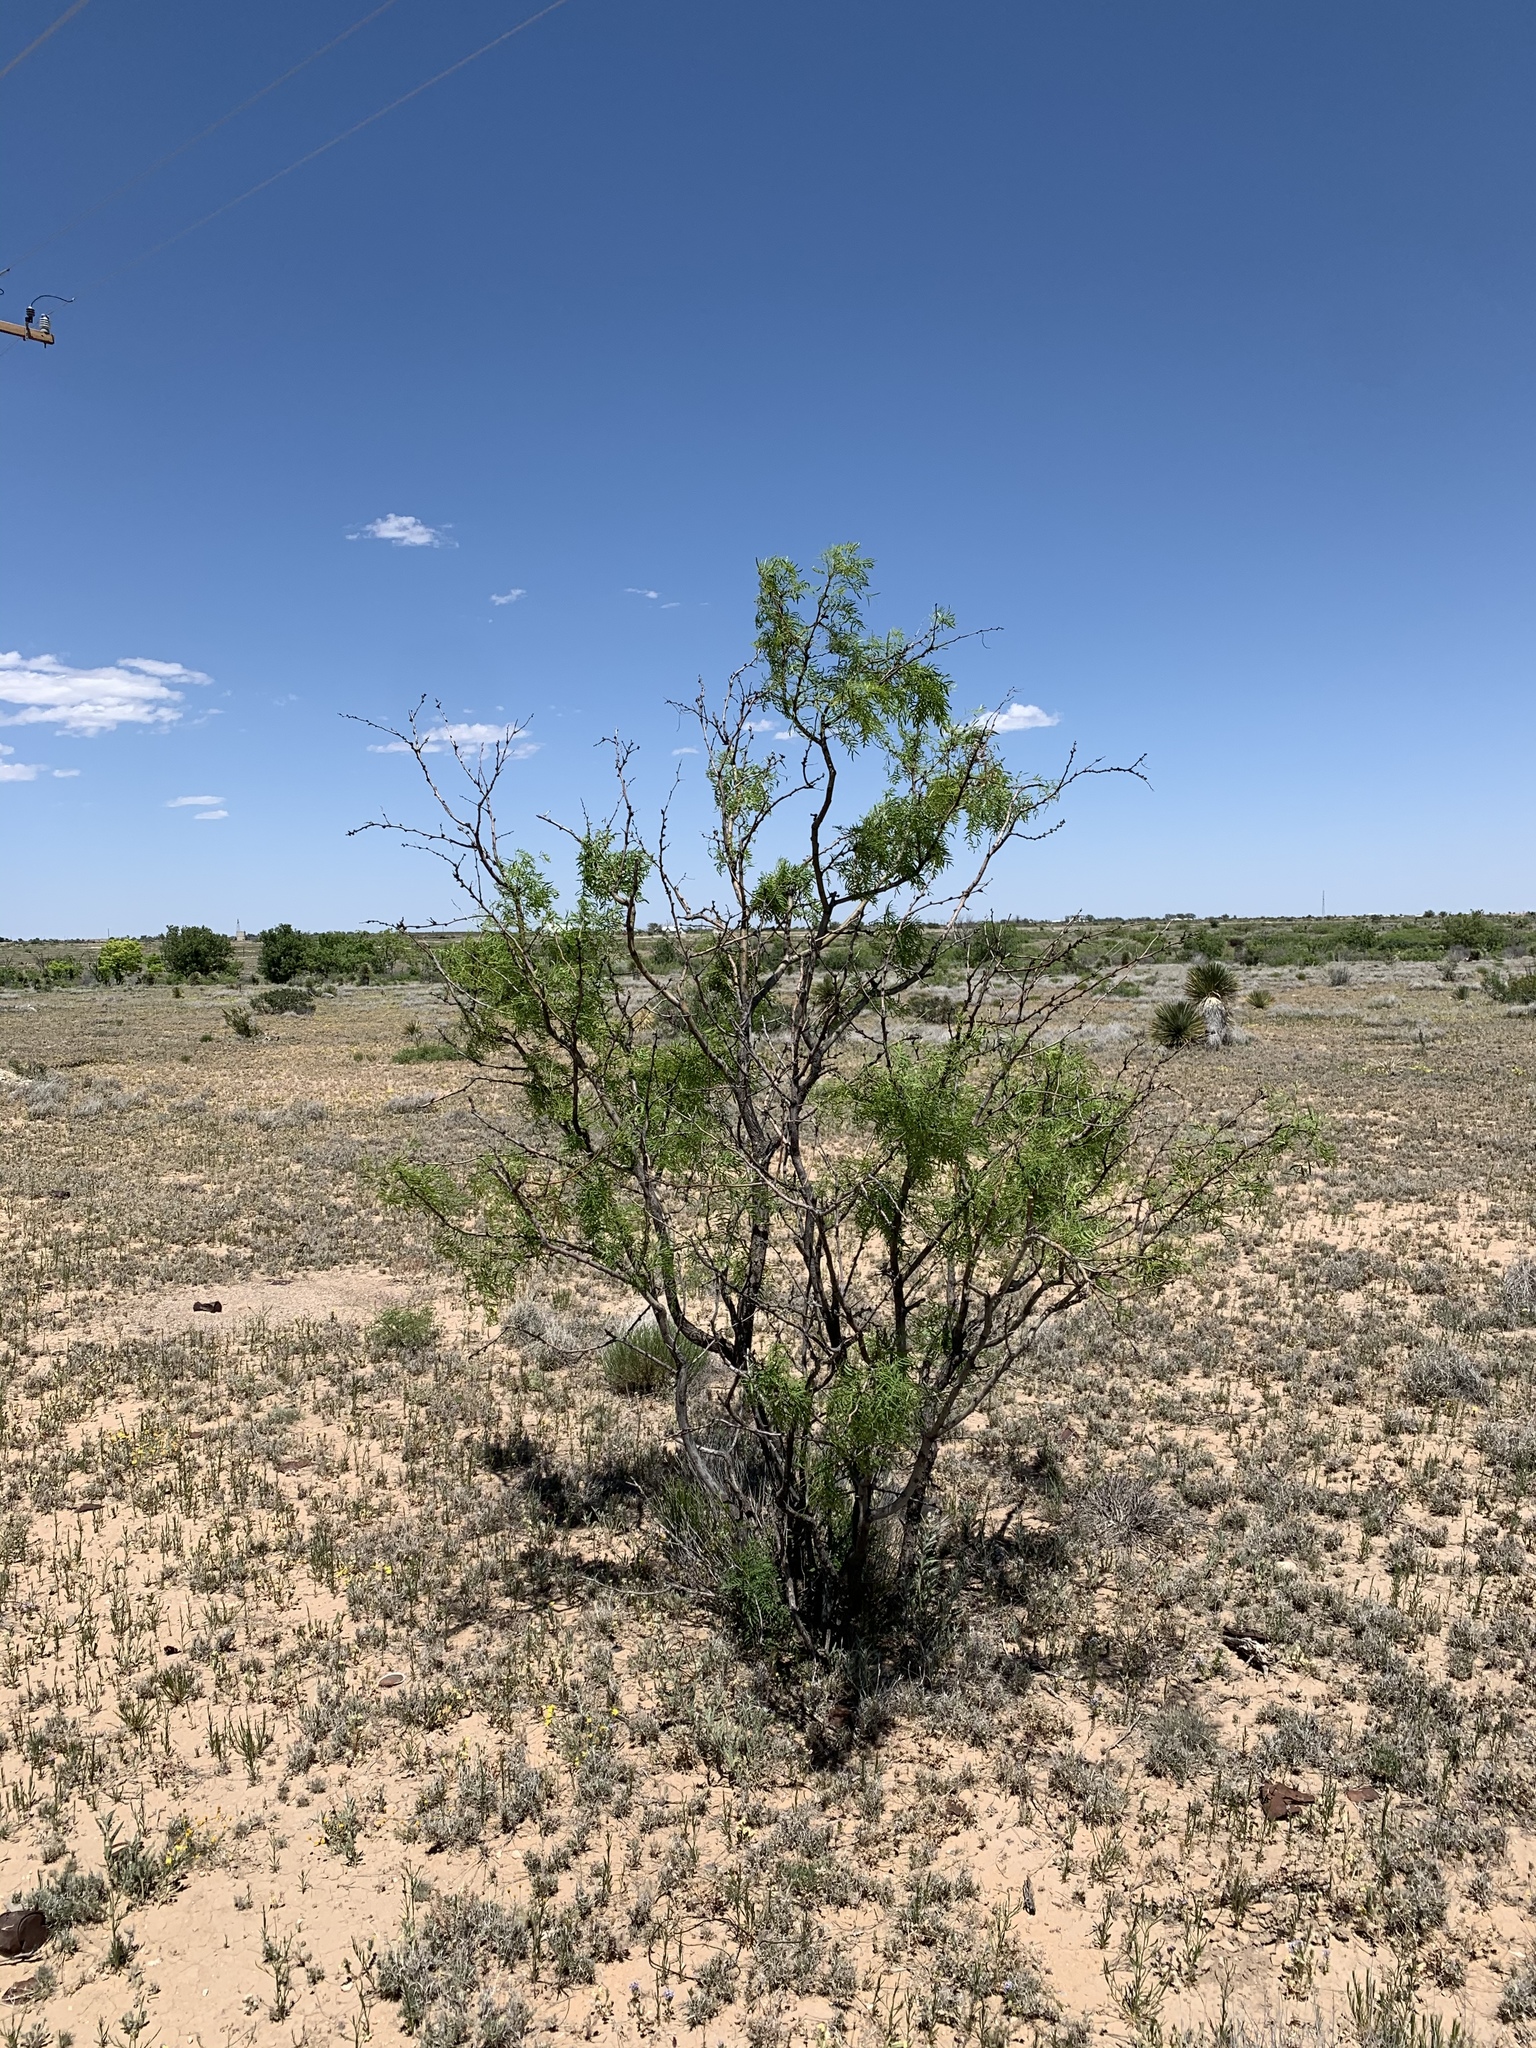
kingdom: Plantae
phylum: Tracheophyta
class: Magnoliopsida
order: Fabales
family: Fabaceae
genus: Prosopis
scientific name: Prosopis glandulosa
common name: Honey mesquite
